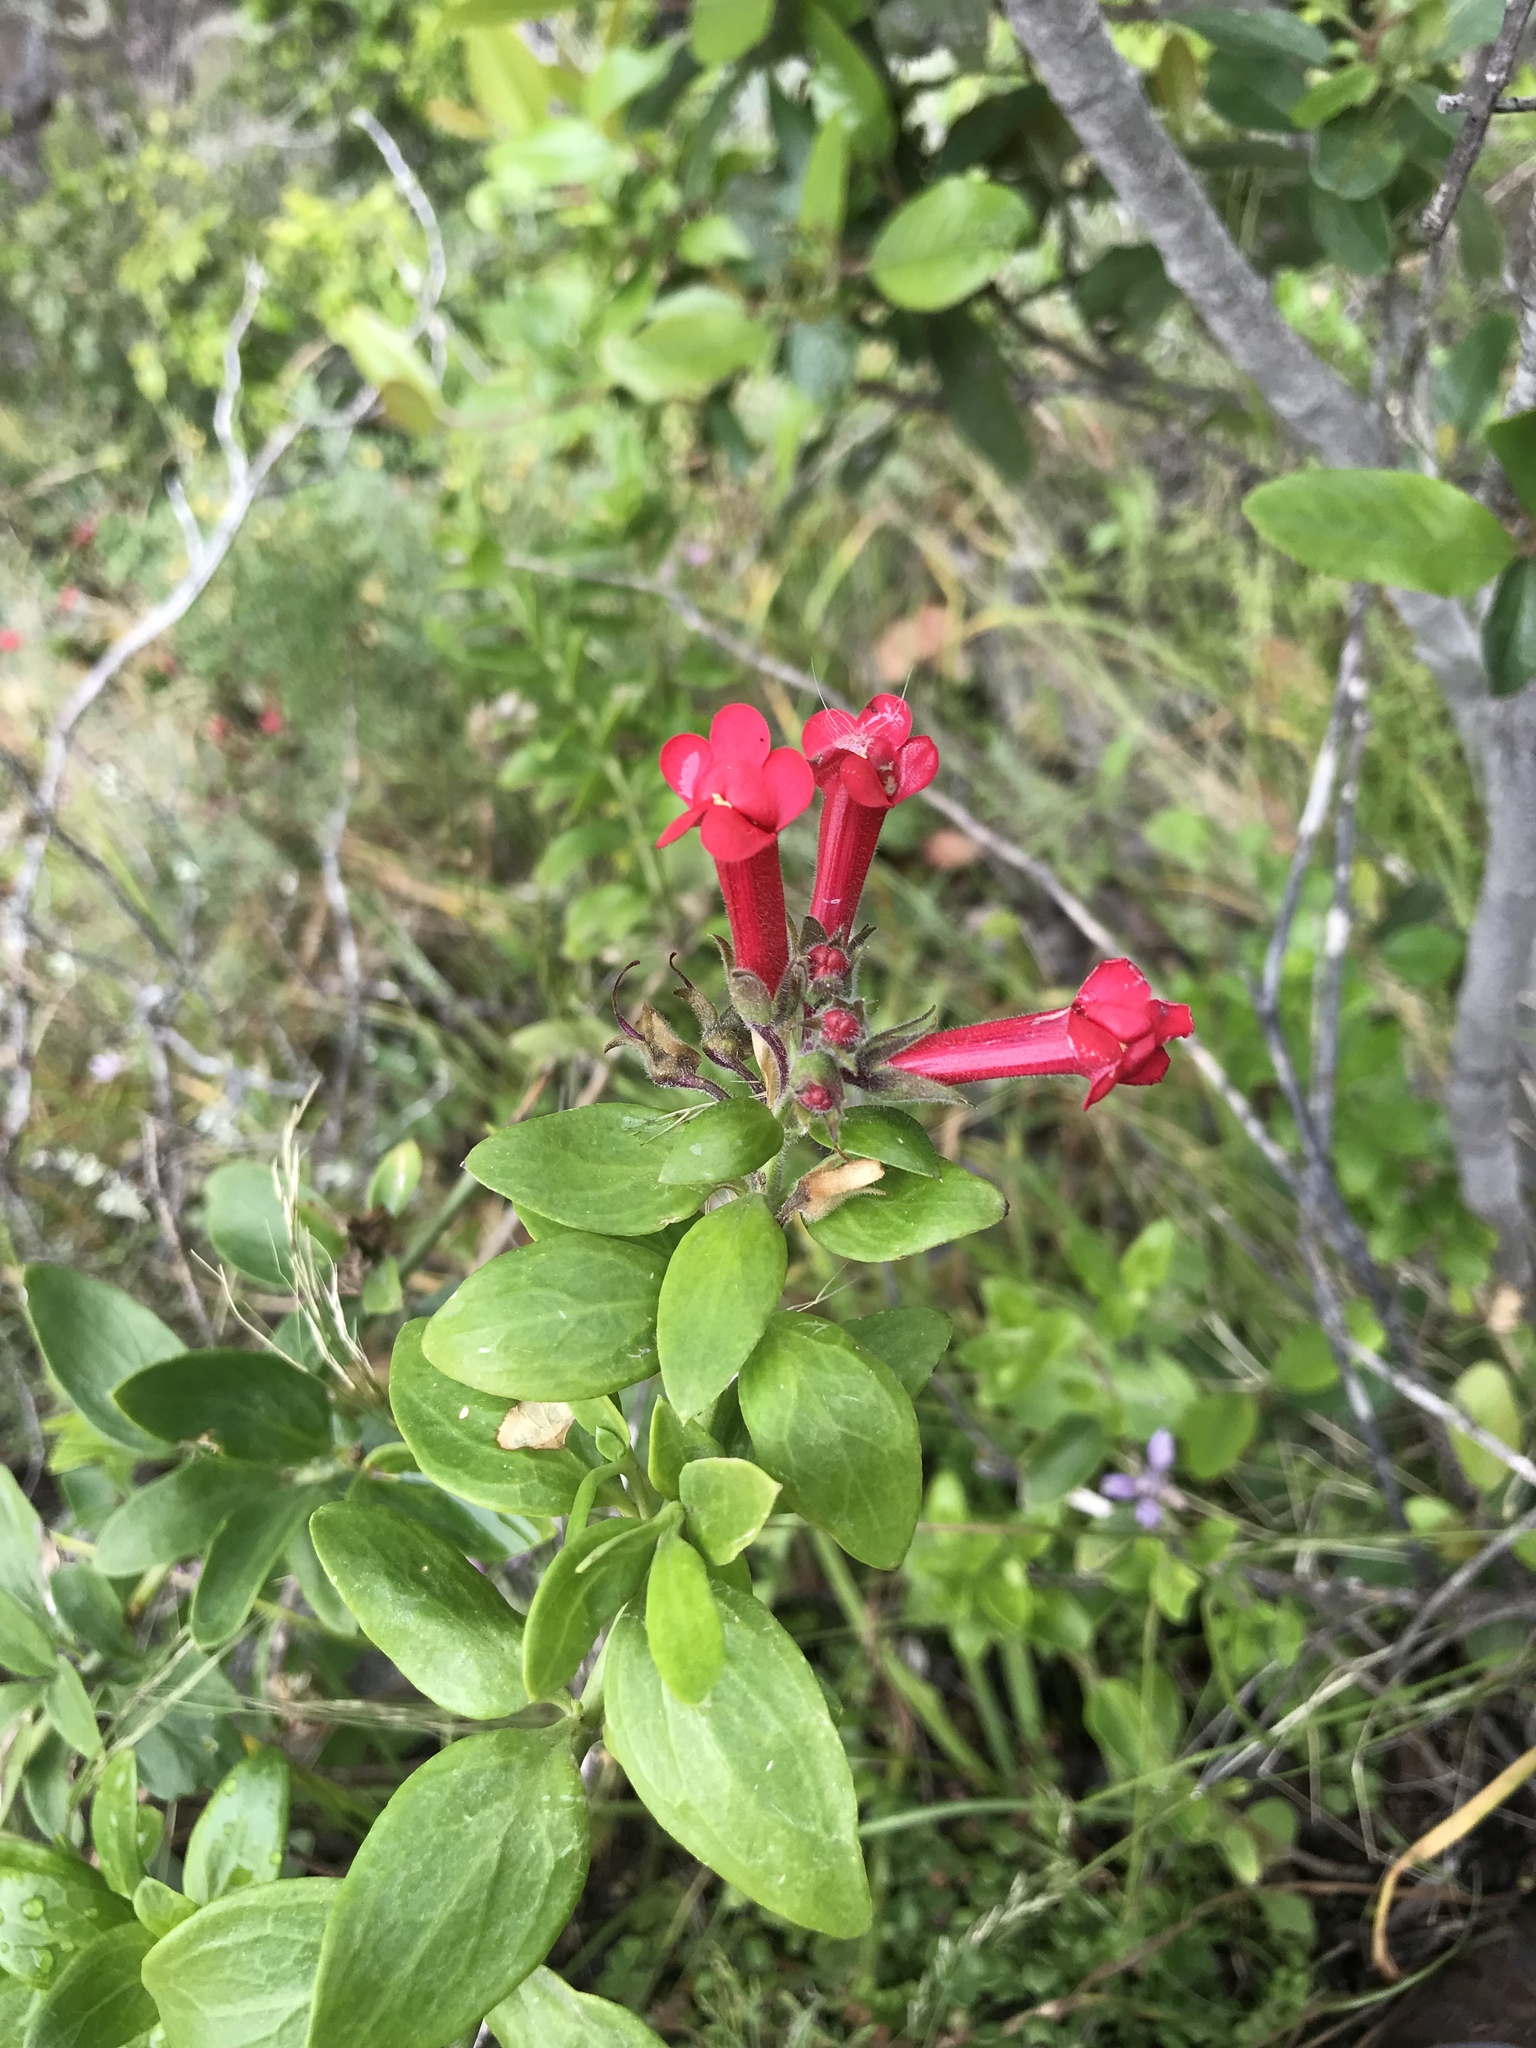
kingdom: Plantae
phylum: Tracheophyta
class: Magnoliopsida
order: Lamiales
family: Plantaginaceae
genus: Gambelia
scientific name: Gambelia speciosa
